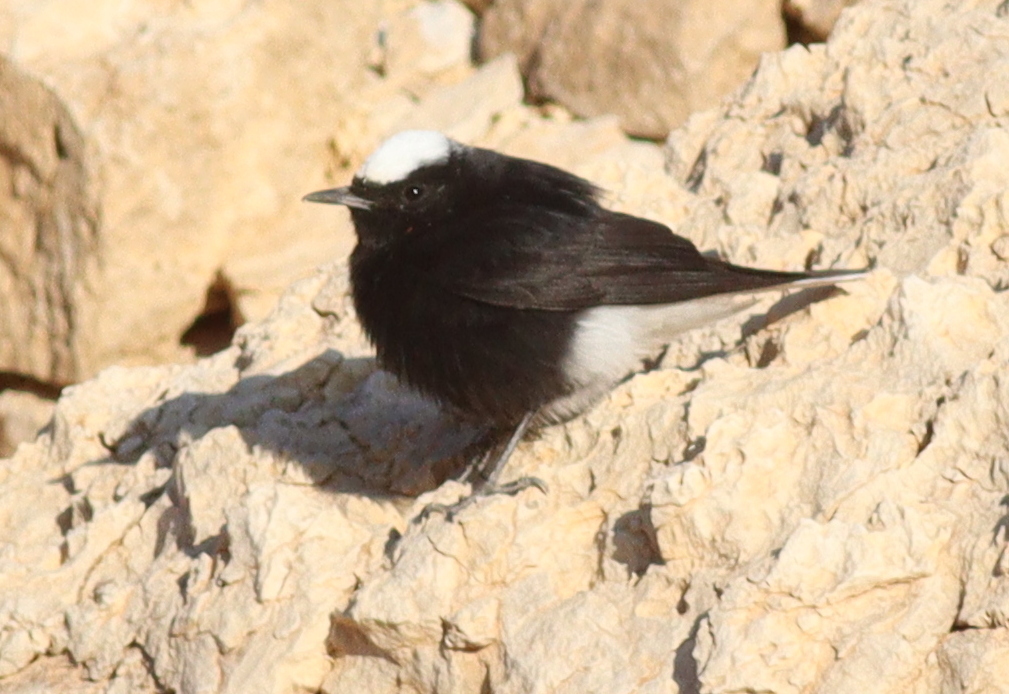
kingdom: Animalia
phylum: Chordata
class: Aves
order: Passeriformes
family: Muscicapidae
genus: Oenanthe
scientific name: Oenanthe leucopyga
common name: White-crowned wheatear
